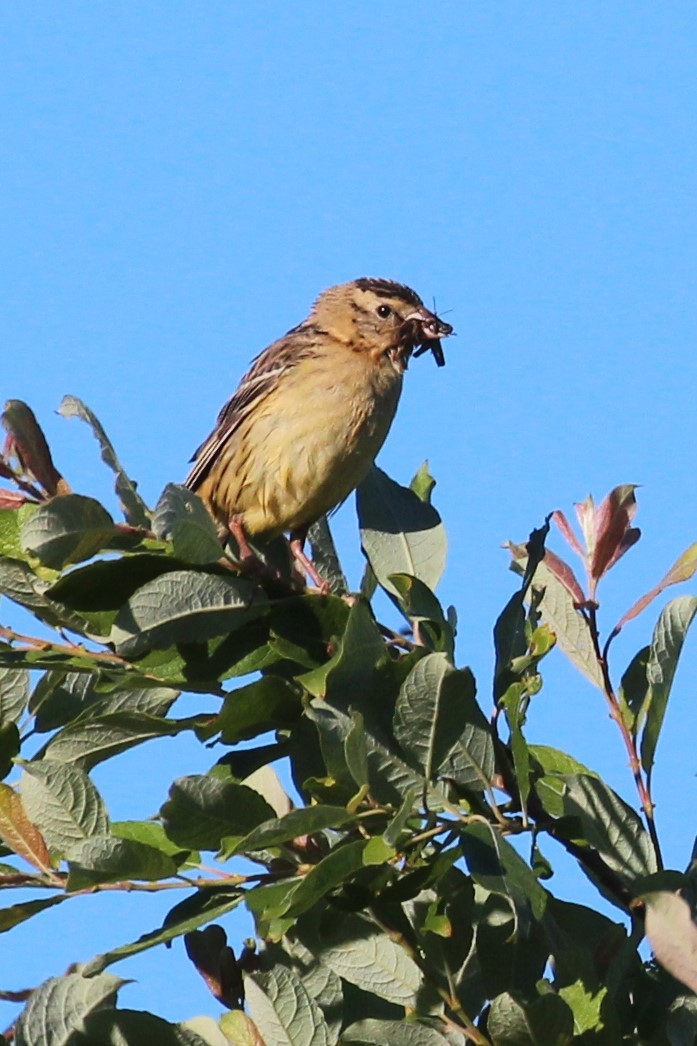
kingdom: Animalia
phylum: Chordata
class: Aves
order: Passeriformes
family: Icteridae
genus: Dolichonyx
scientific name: Dolichonyx oryzivorus
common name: Bobolink
